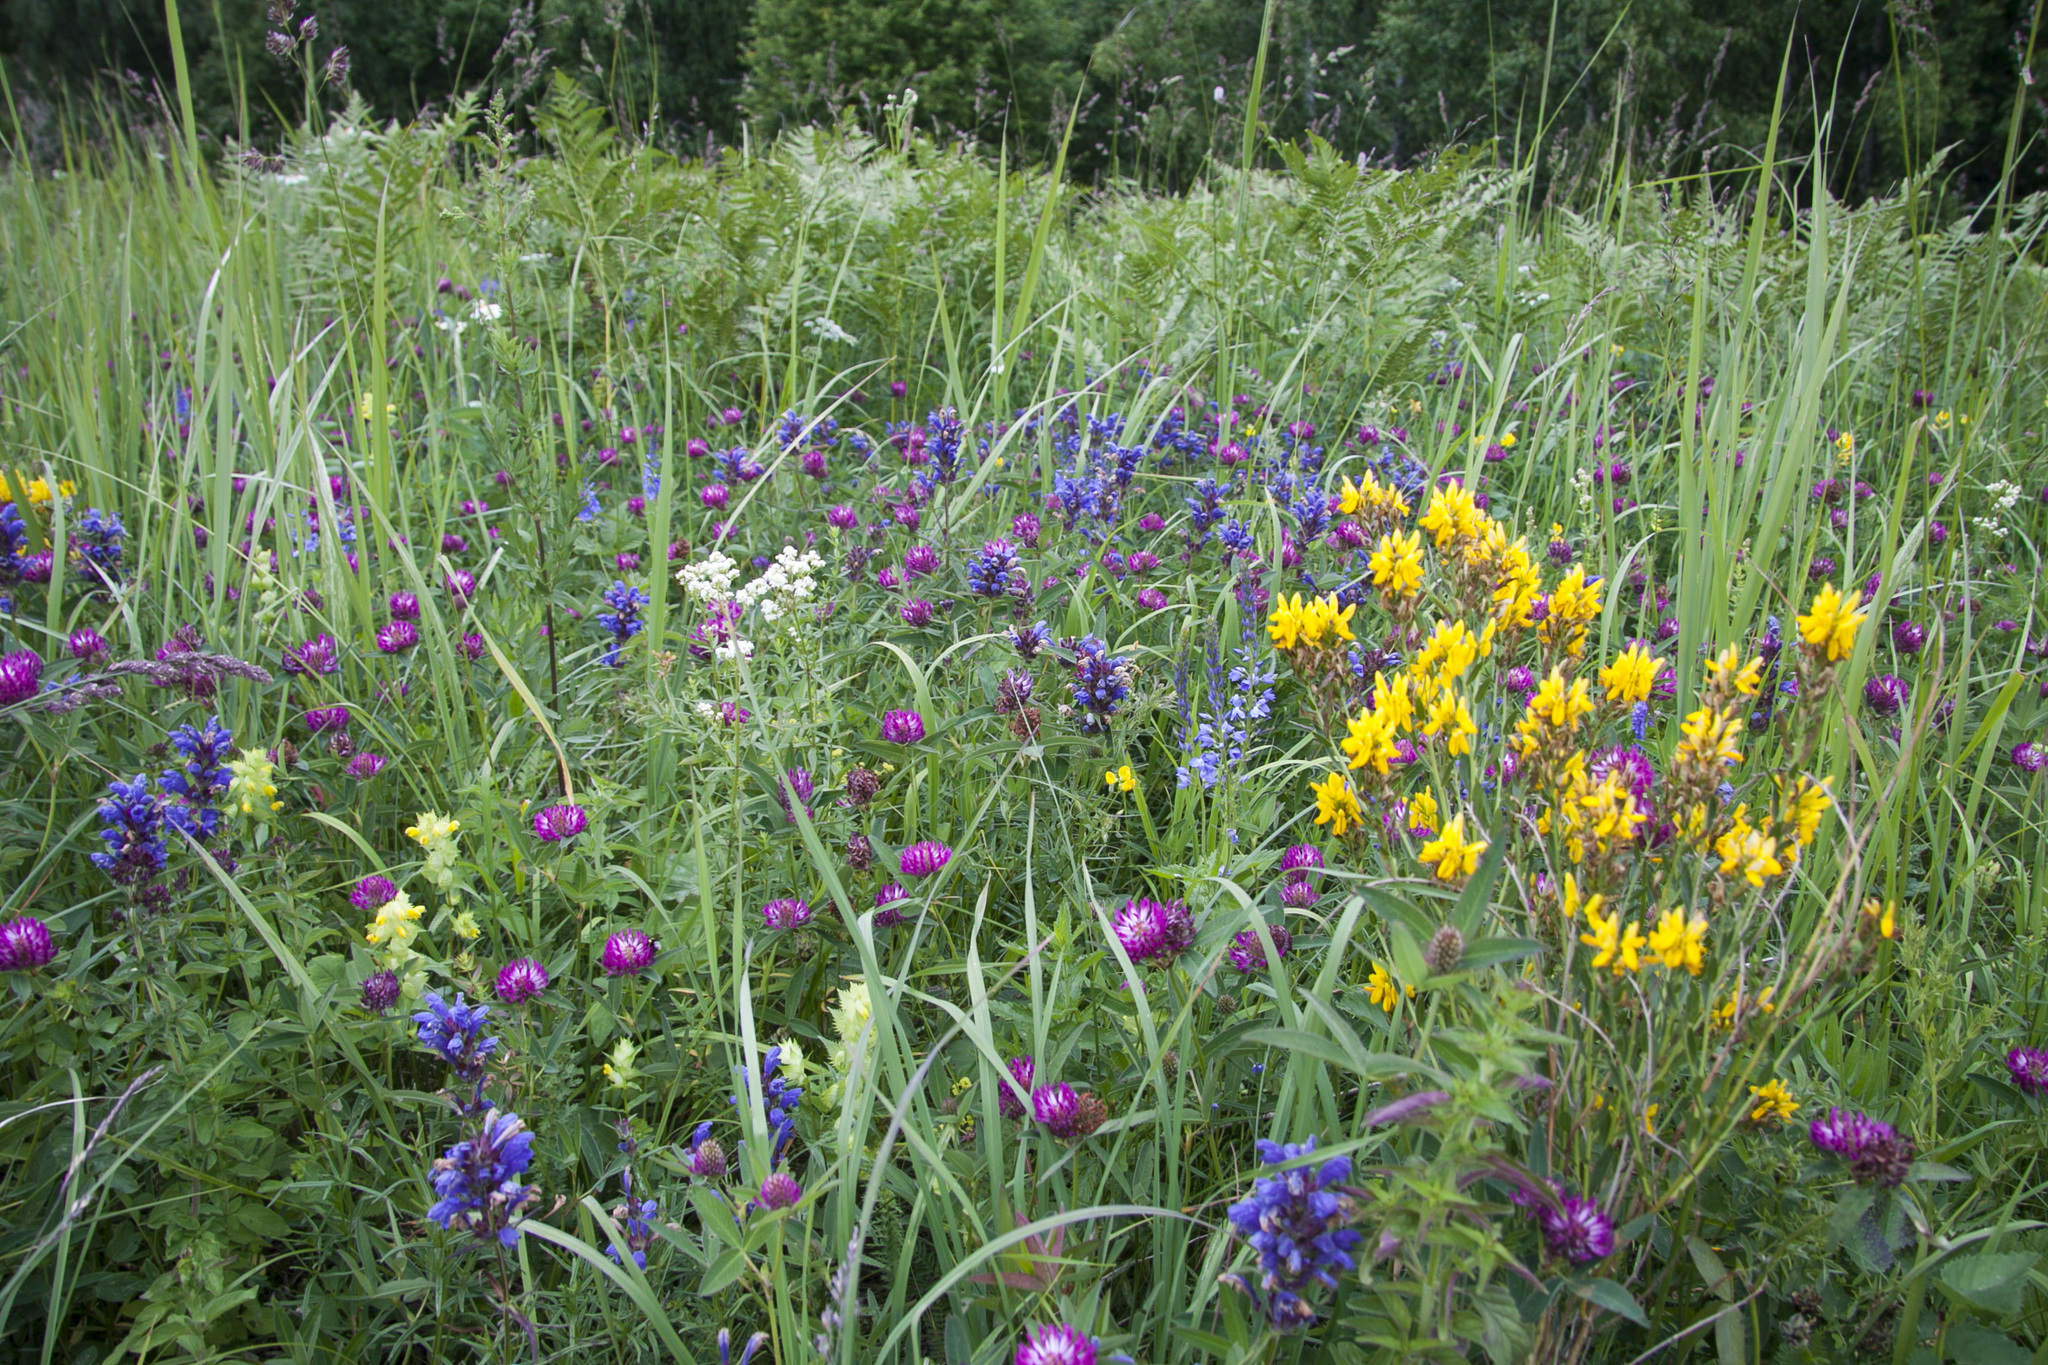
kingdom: Plantae
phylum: Tracheophyta
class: Magnoliopsida
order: Lamiales
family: Orobanchaceae
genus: Rhinanthus
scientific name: Rhinanthus serotinus
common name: Late-flowering yellow rattle
